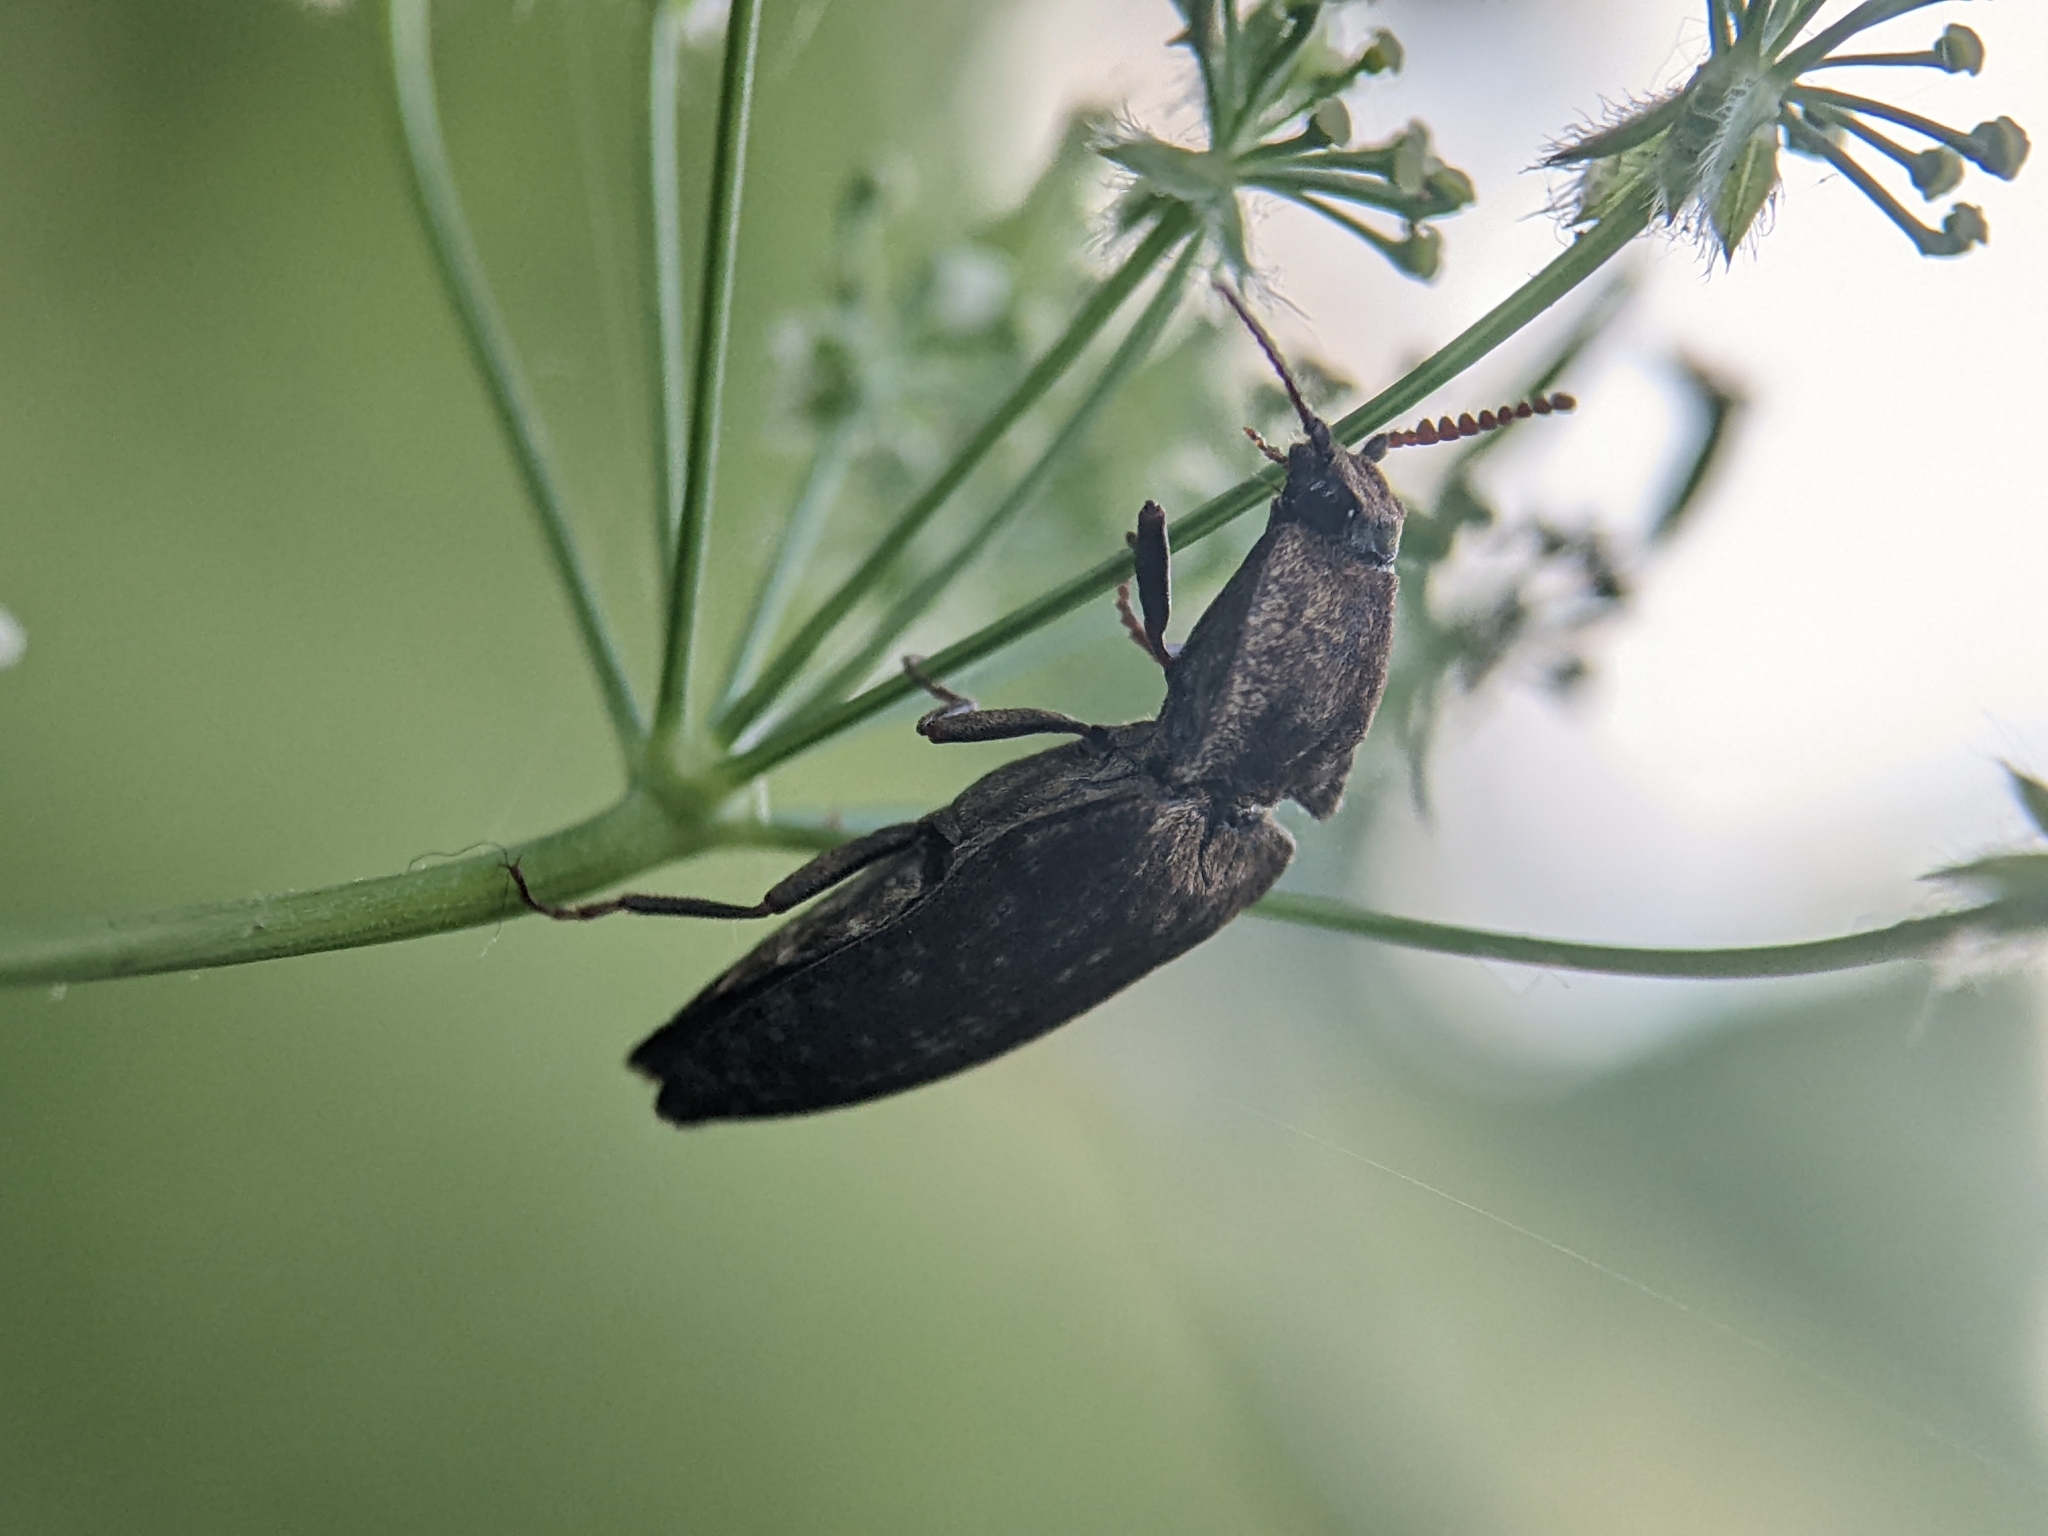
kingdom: Animalia
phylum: Arthropoda
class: Insecta
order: Coleoptera
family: Elateridae
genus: Agrypnus
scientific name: Agrypnus murinus
